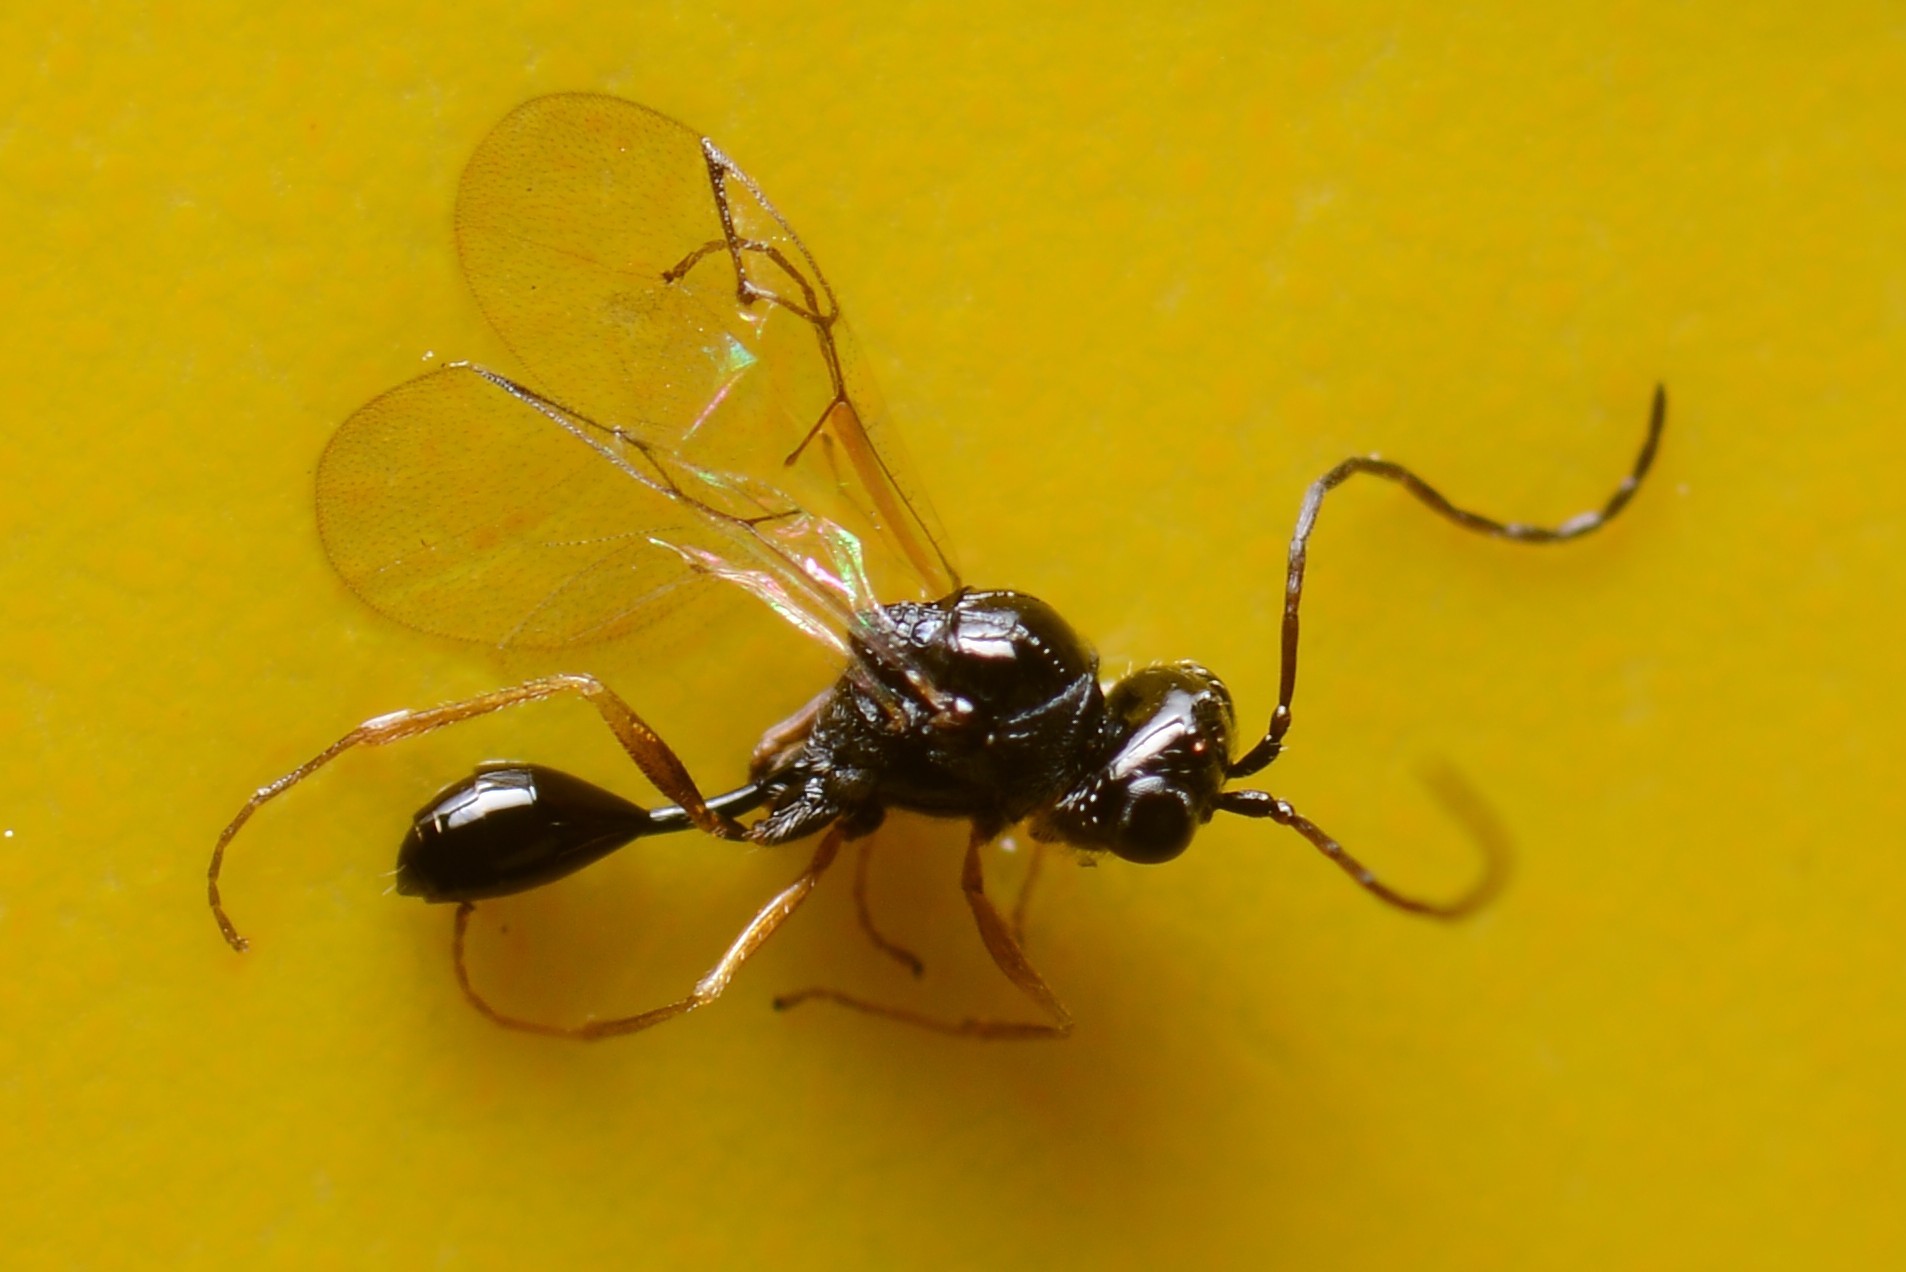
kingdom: Animalia
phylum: Arthropoda
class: Insecta
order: Hymenoptera
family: Figitidae
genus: Anacharis
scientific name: Anacharis zealandica
